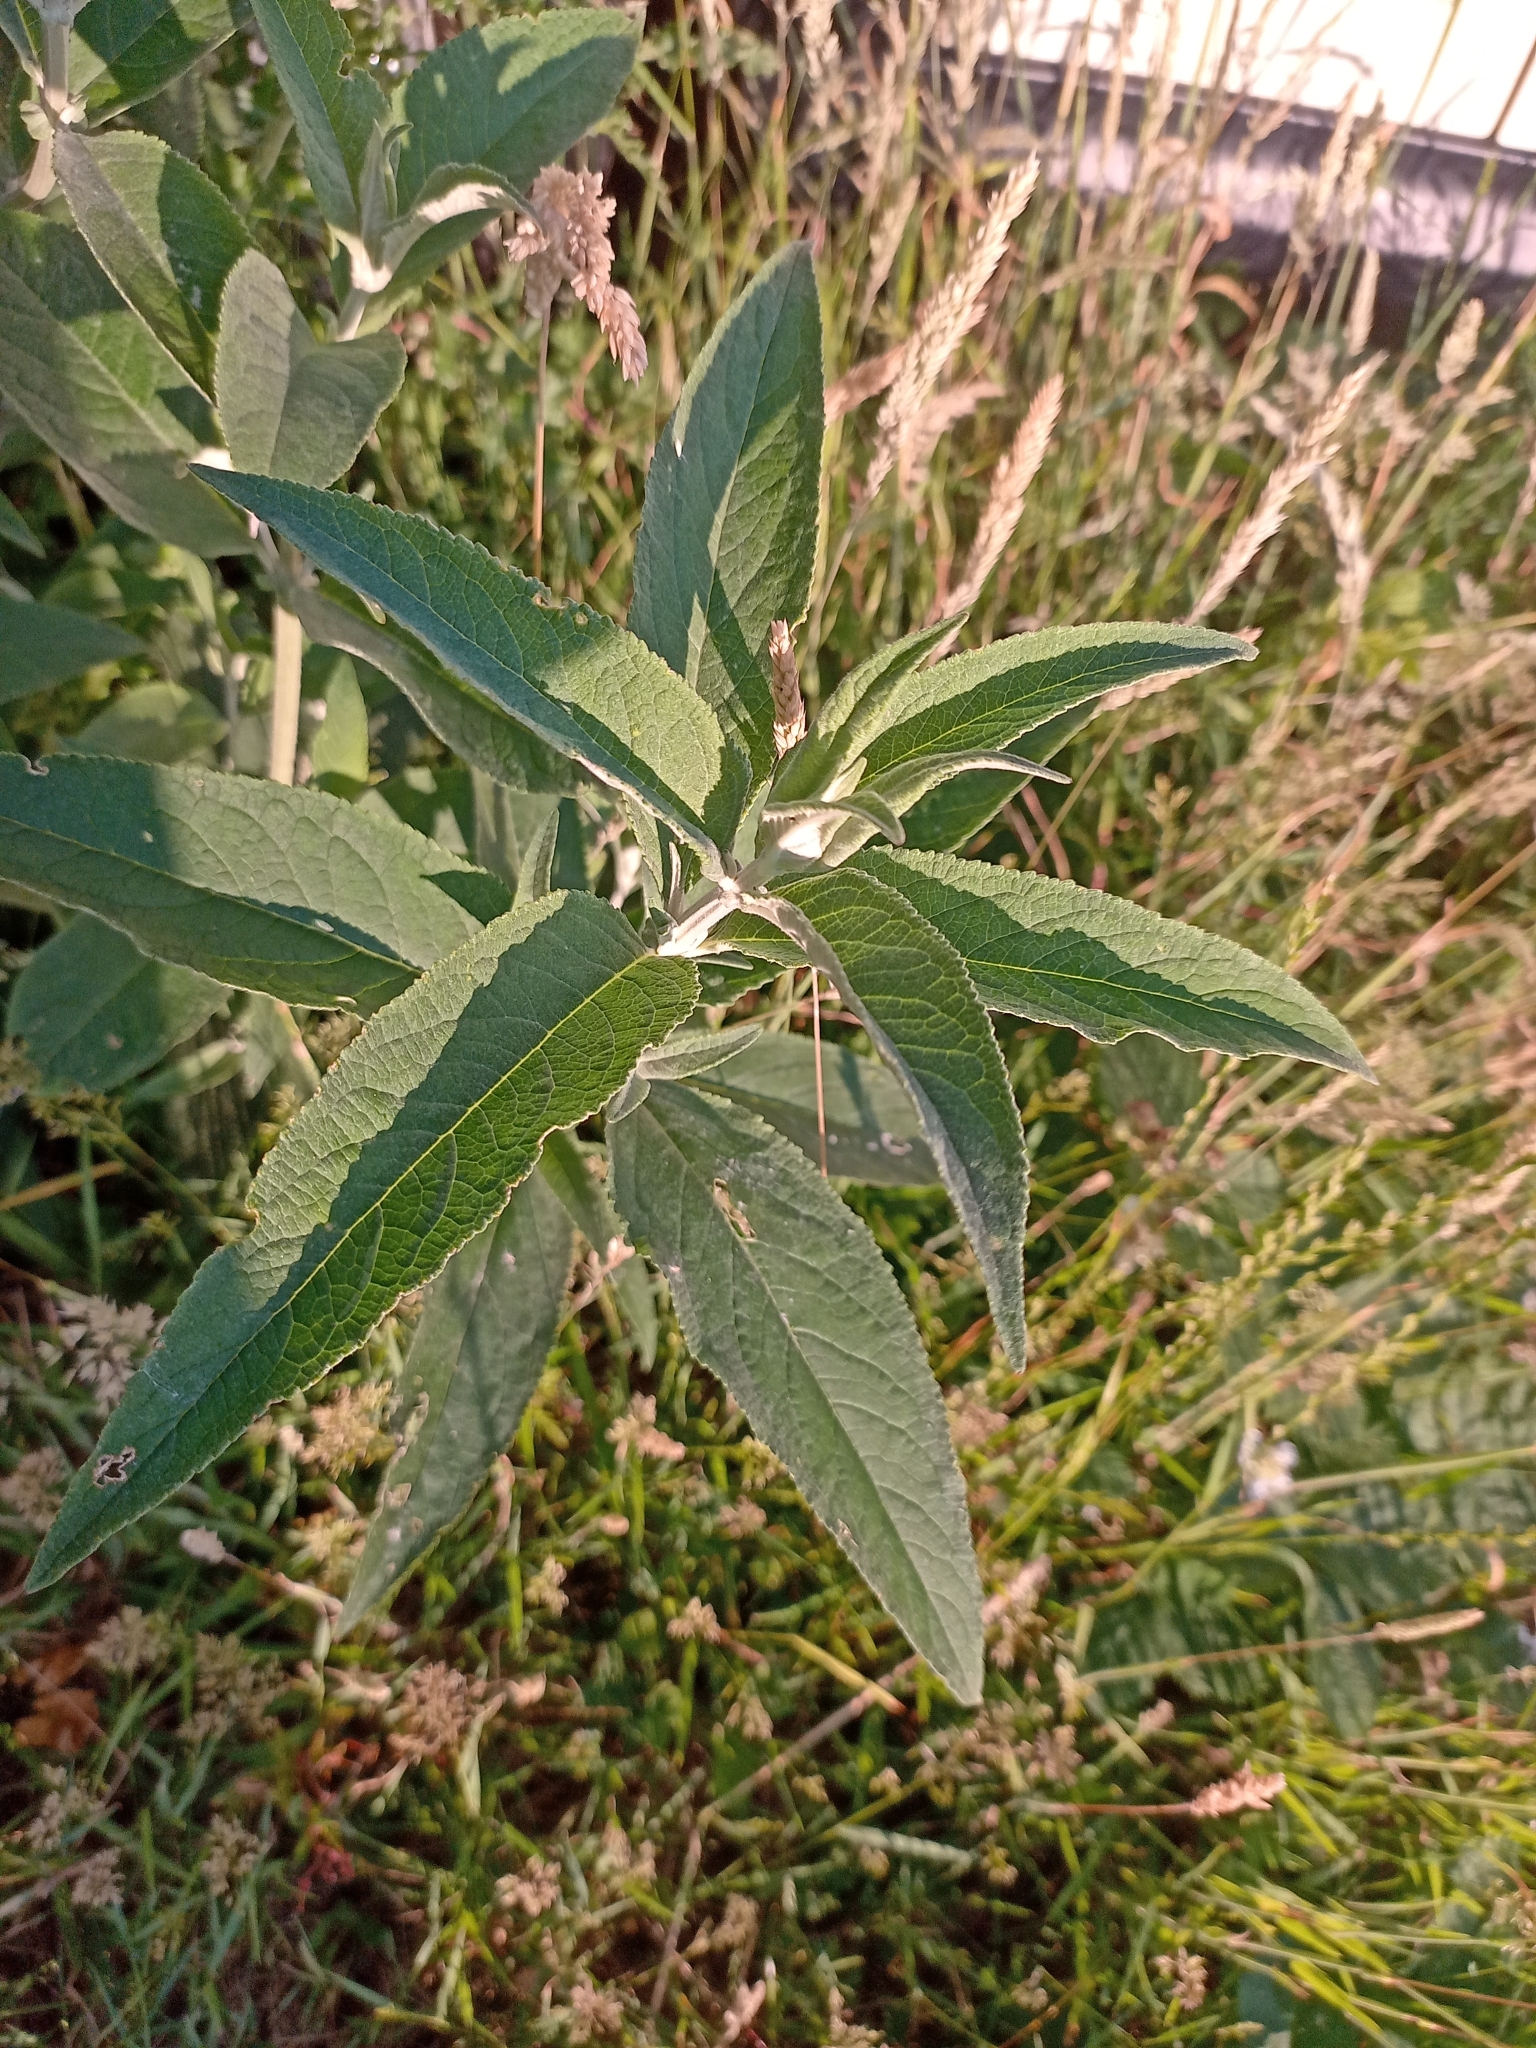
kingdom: Plantae
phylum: Tracheophyta
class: Magnoliopsida
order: Lamiales
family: Scrophulariaceae
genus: Buddleja
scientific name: Buddleja davidii
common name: Butterfly-bush
